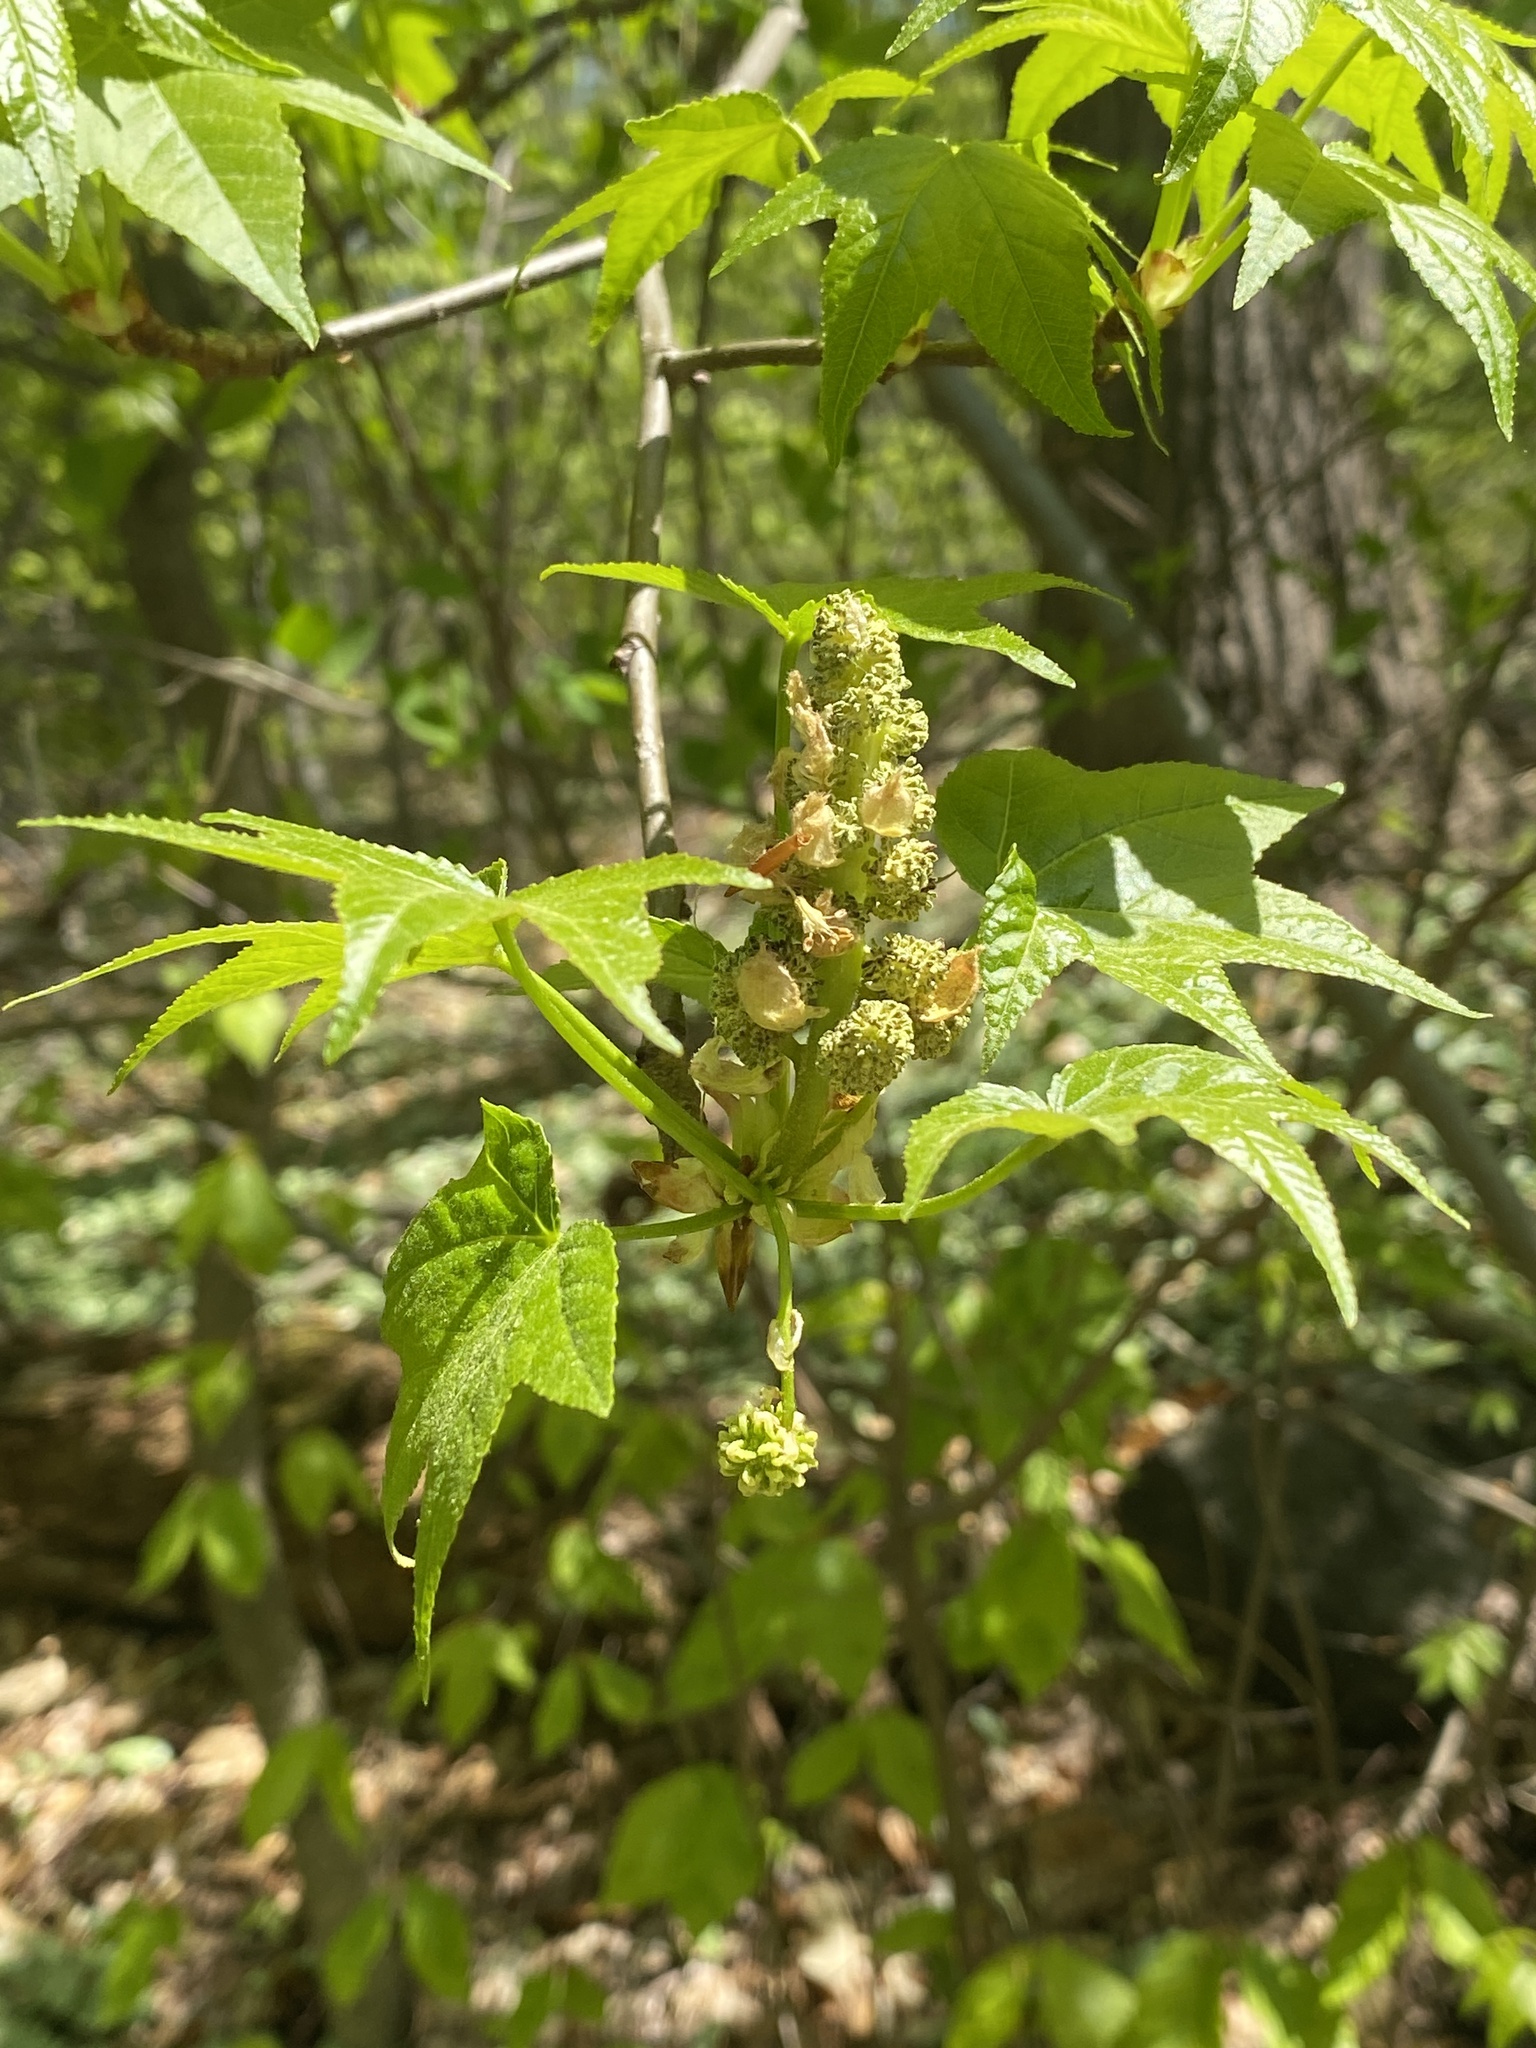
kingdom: Plantae
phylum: Tracheophyta
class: Magnoliopsida
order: Saxifragales
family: Altingiaceae
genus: Liquidambar
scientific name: Liquidambar styraciflua
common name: Sweet gum
